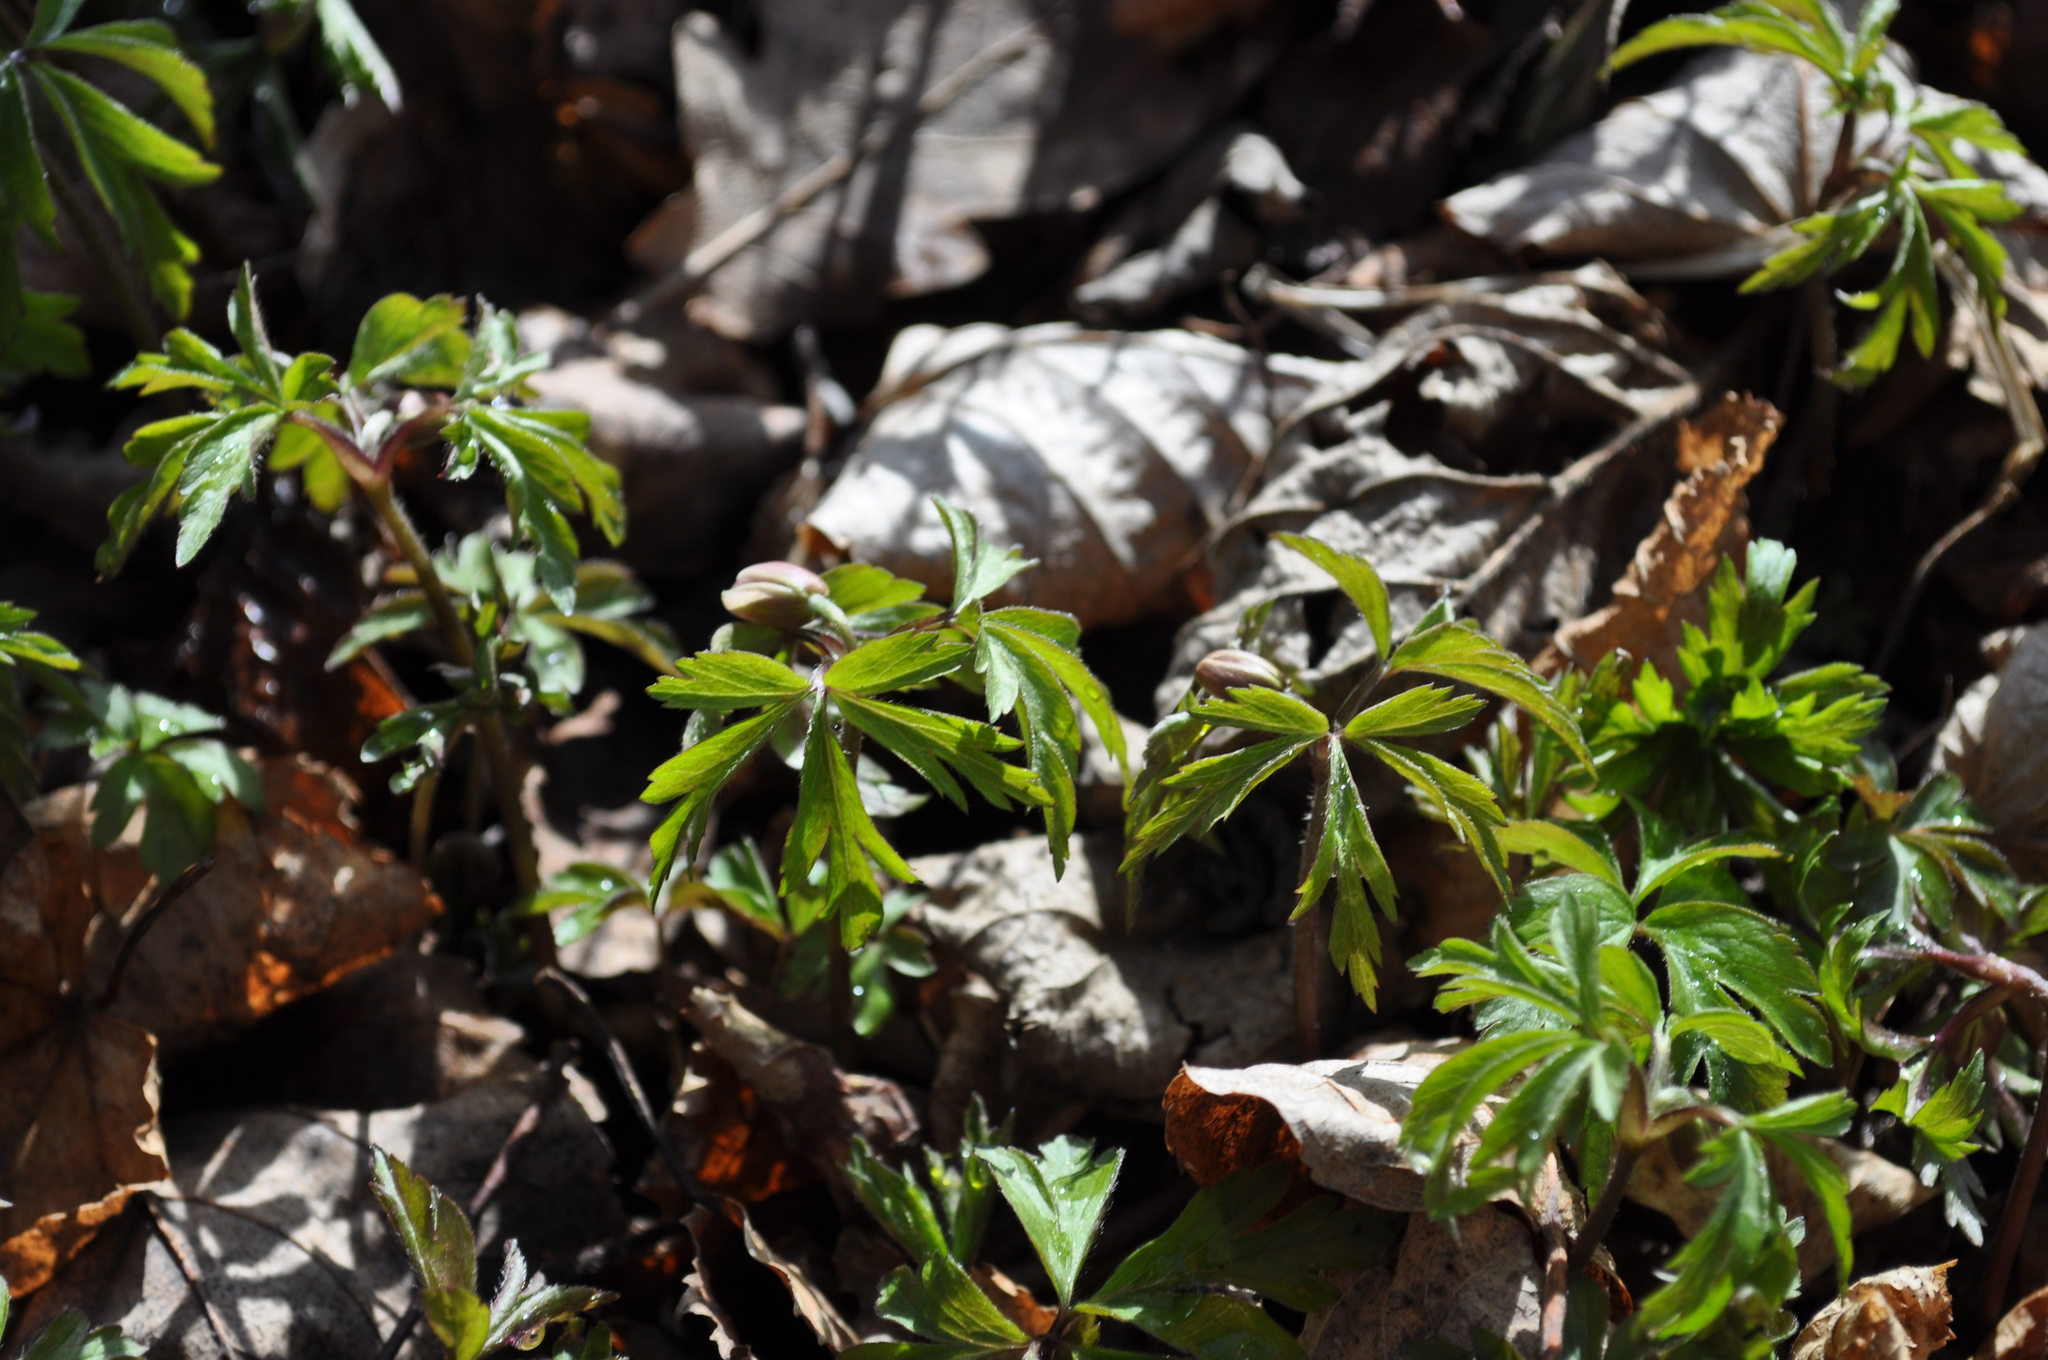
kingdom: Plantae
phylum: Tracheophyta
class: Magnoliopsida
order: Ranunculales
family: Ranunculaceae
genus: Anemone
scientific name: Anemone nemorosa
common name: Wood anemone
